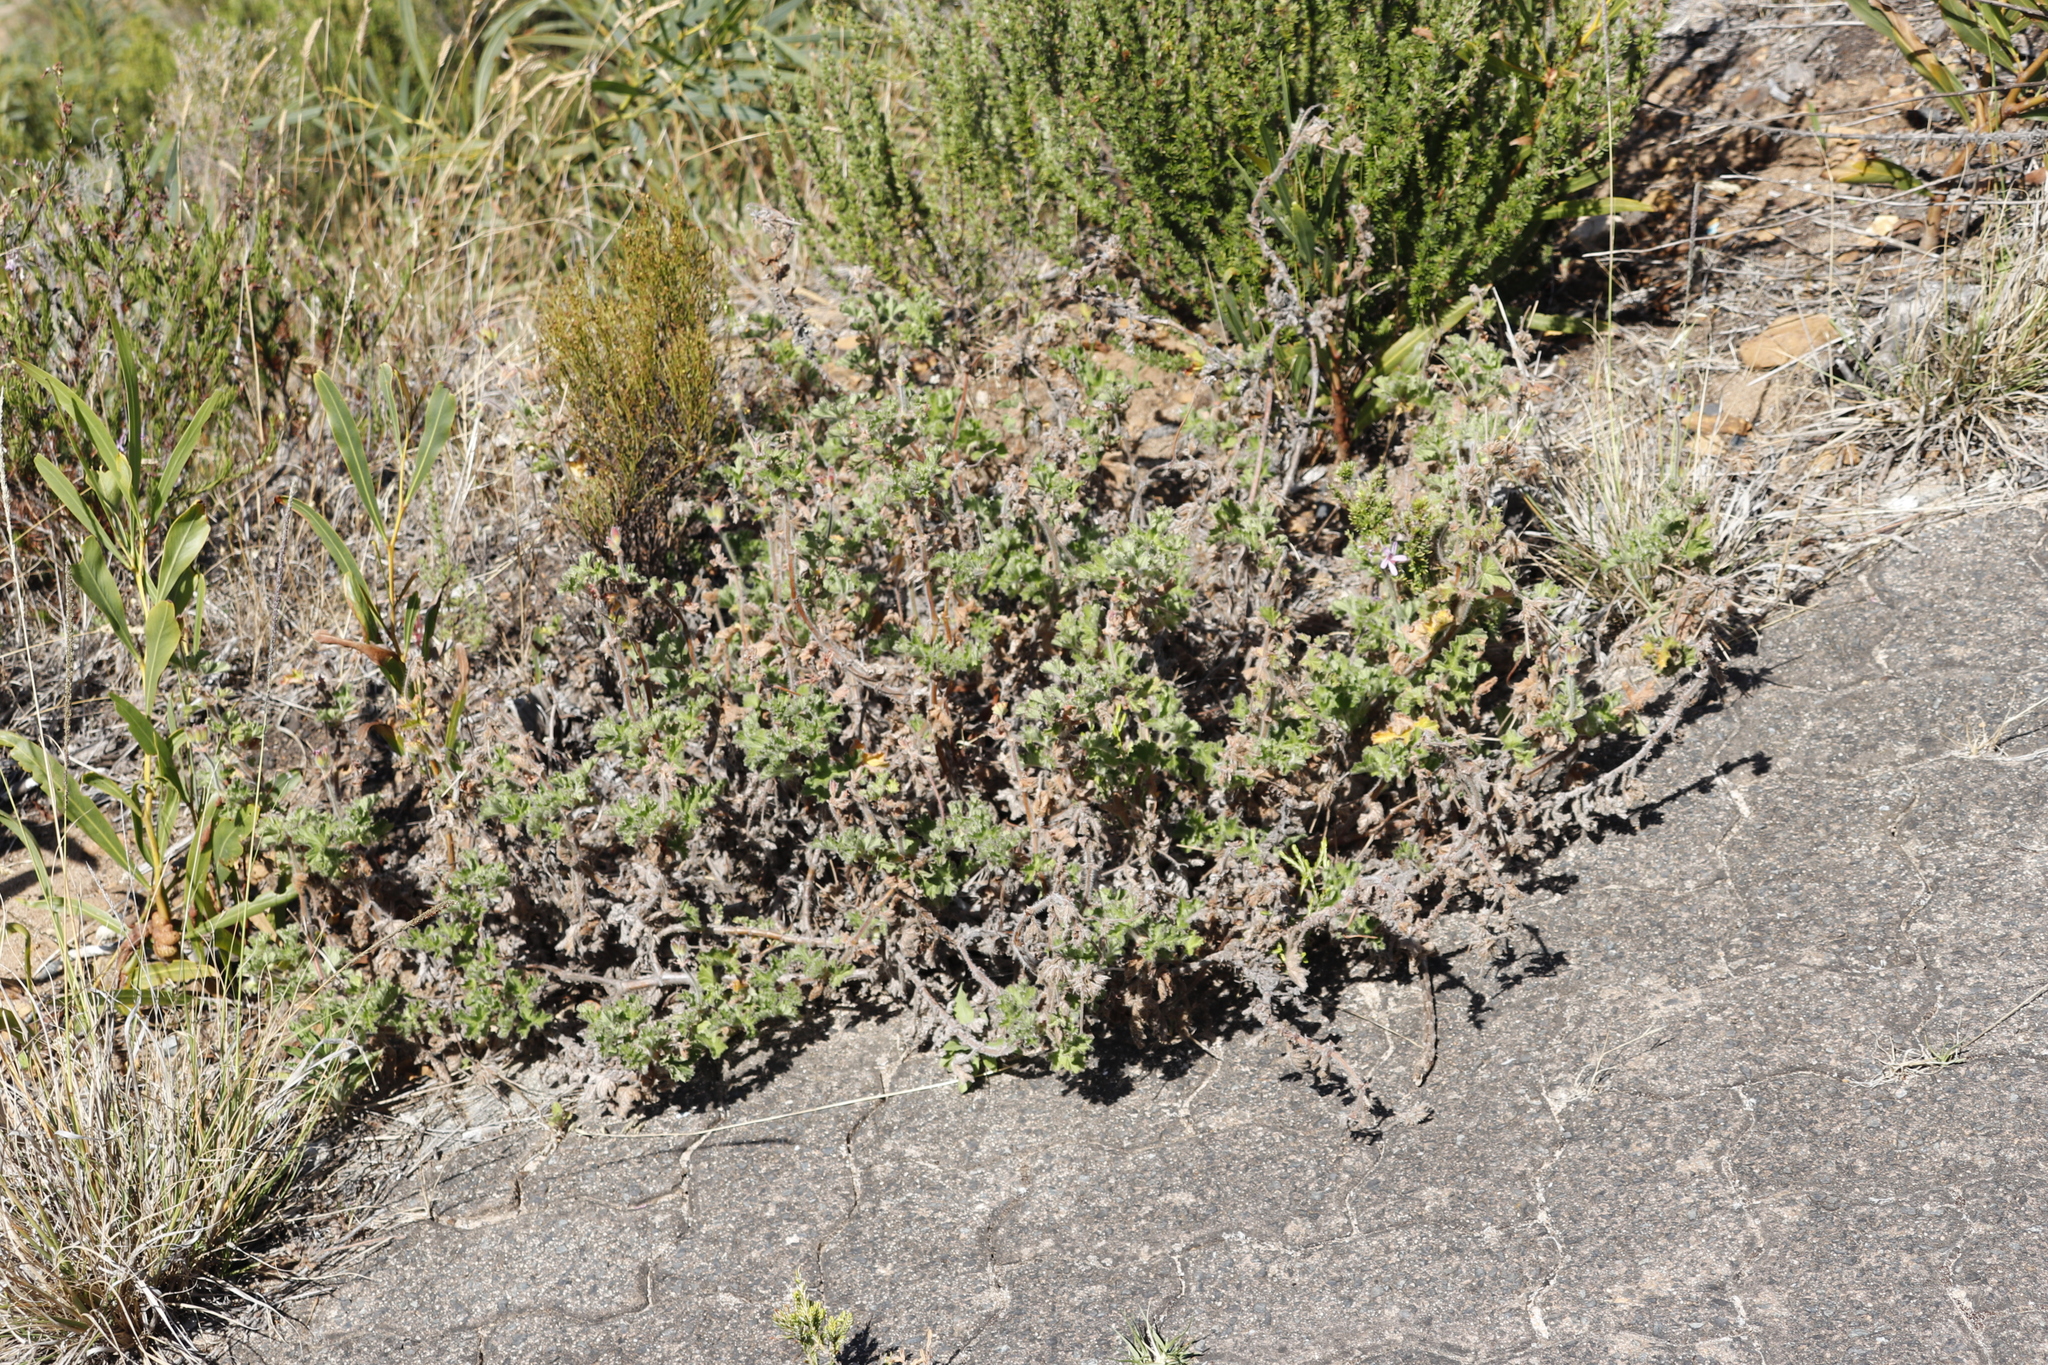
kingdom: Plantae
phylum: Tracheophyta
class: Magnoliopsida
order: Geraniales
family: Geraniaceae
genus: Pelargonium
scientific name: Pelargonium capitatum
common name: Rose scented geranium
